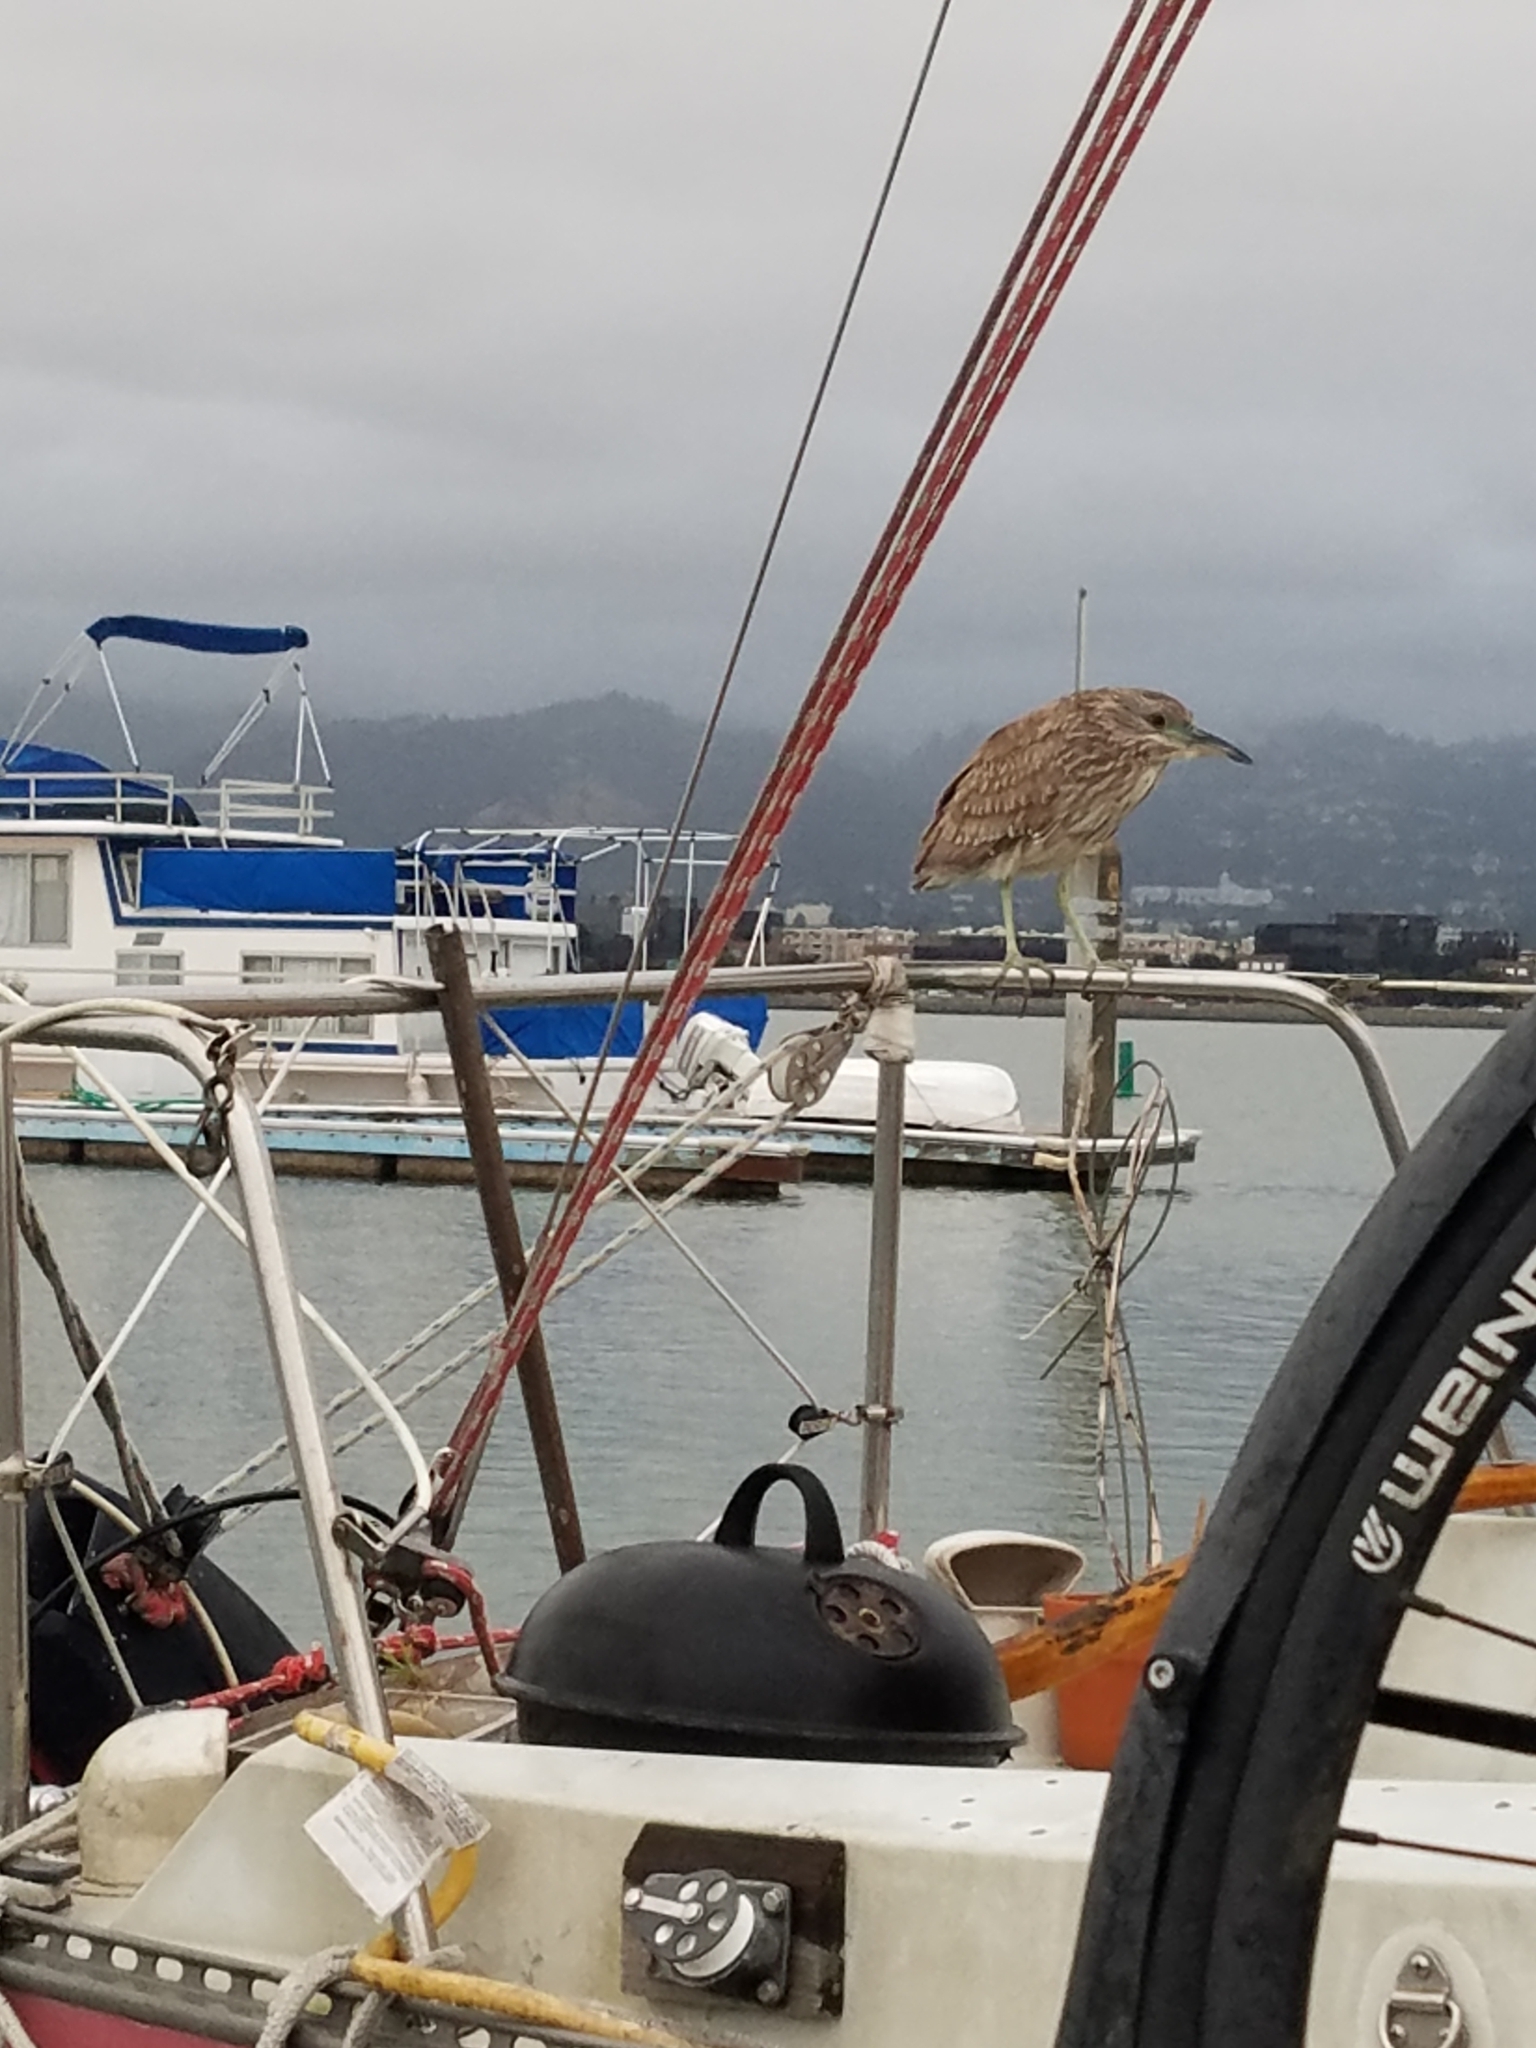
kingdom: Animalia
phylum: Chordata
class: Aves
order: Pelecaniformes
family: Ardeidae
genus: Nycticorax
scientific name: Nycticorax nycticorax
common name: Black-crowned night heron
